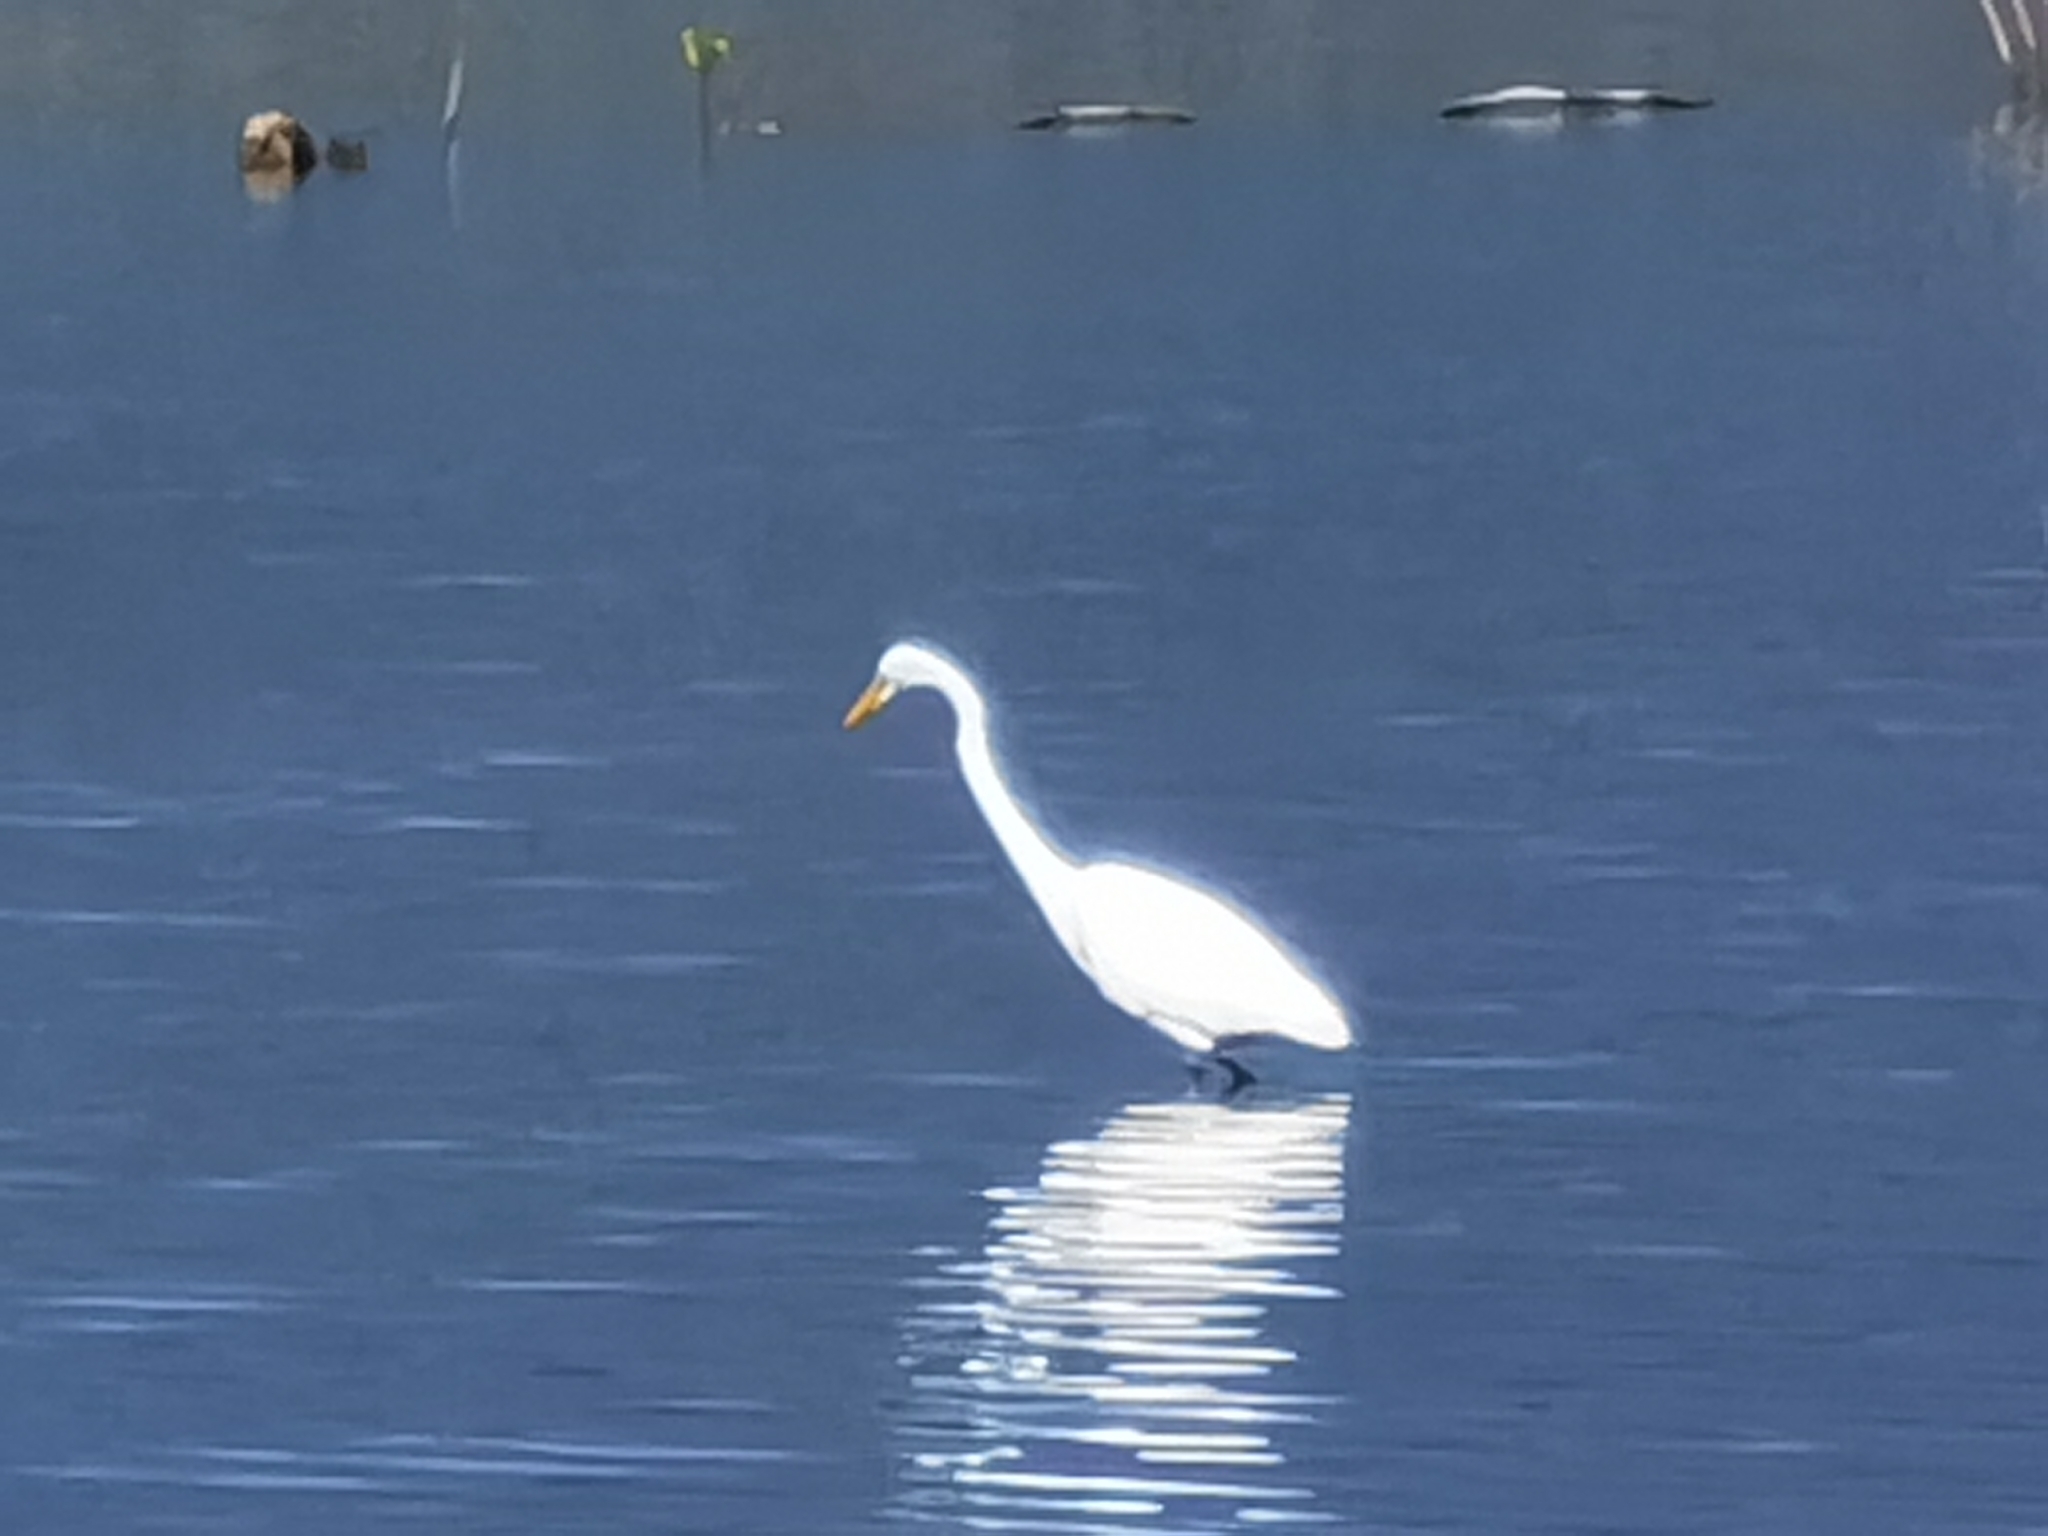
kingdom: Animalia
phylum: Chordata
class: Aves
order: Pelecaniformes
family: Ardeidae
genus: Ardea
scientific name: Ardea alba
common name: Great egret
